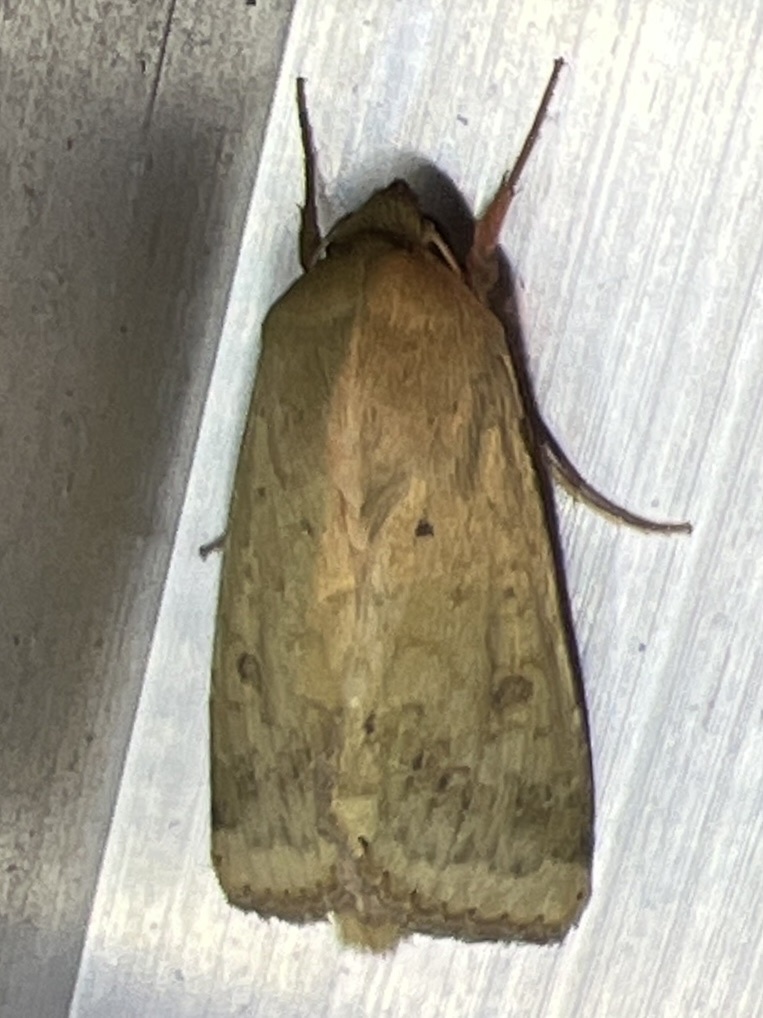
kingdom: Animalia
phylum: Arthropoda
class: Insecta
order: Lepidoptera
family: Noctuidae
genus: Helicoverpa
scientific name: Helicoverpa zea
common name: Bollworm
